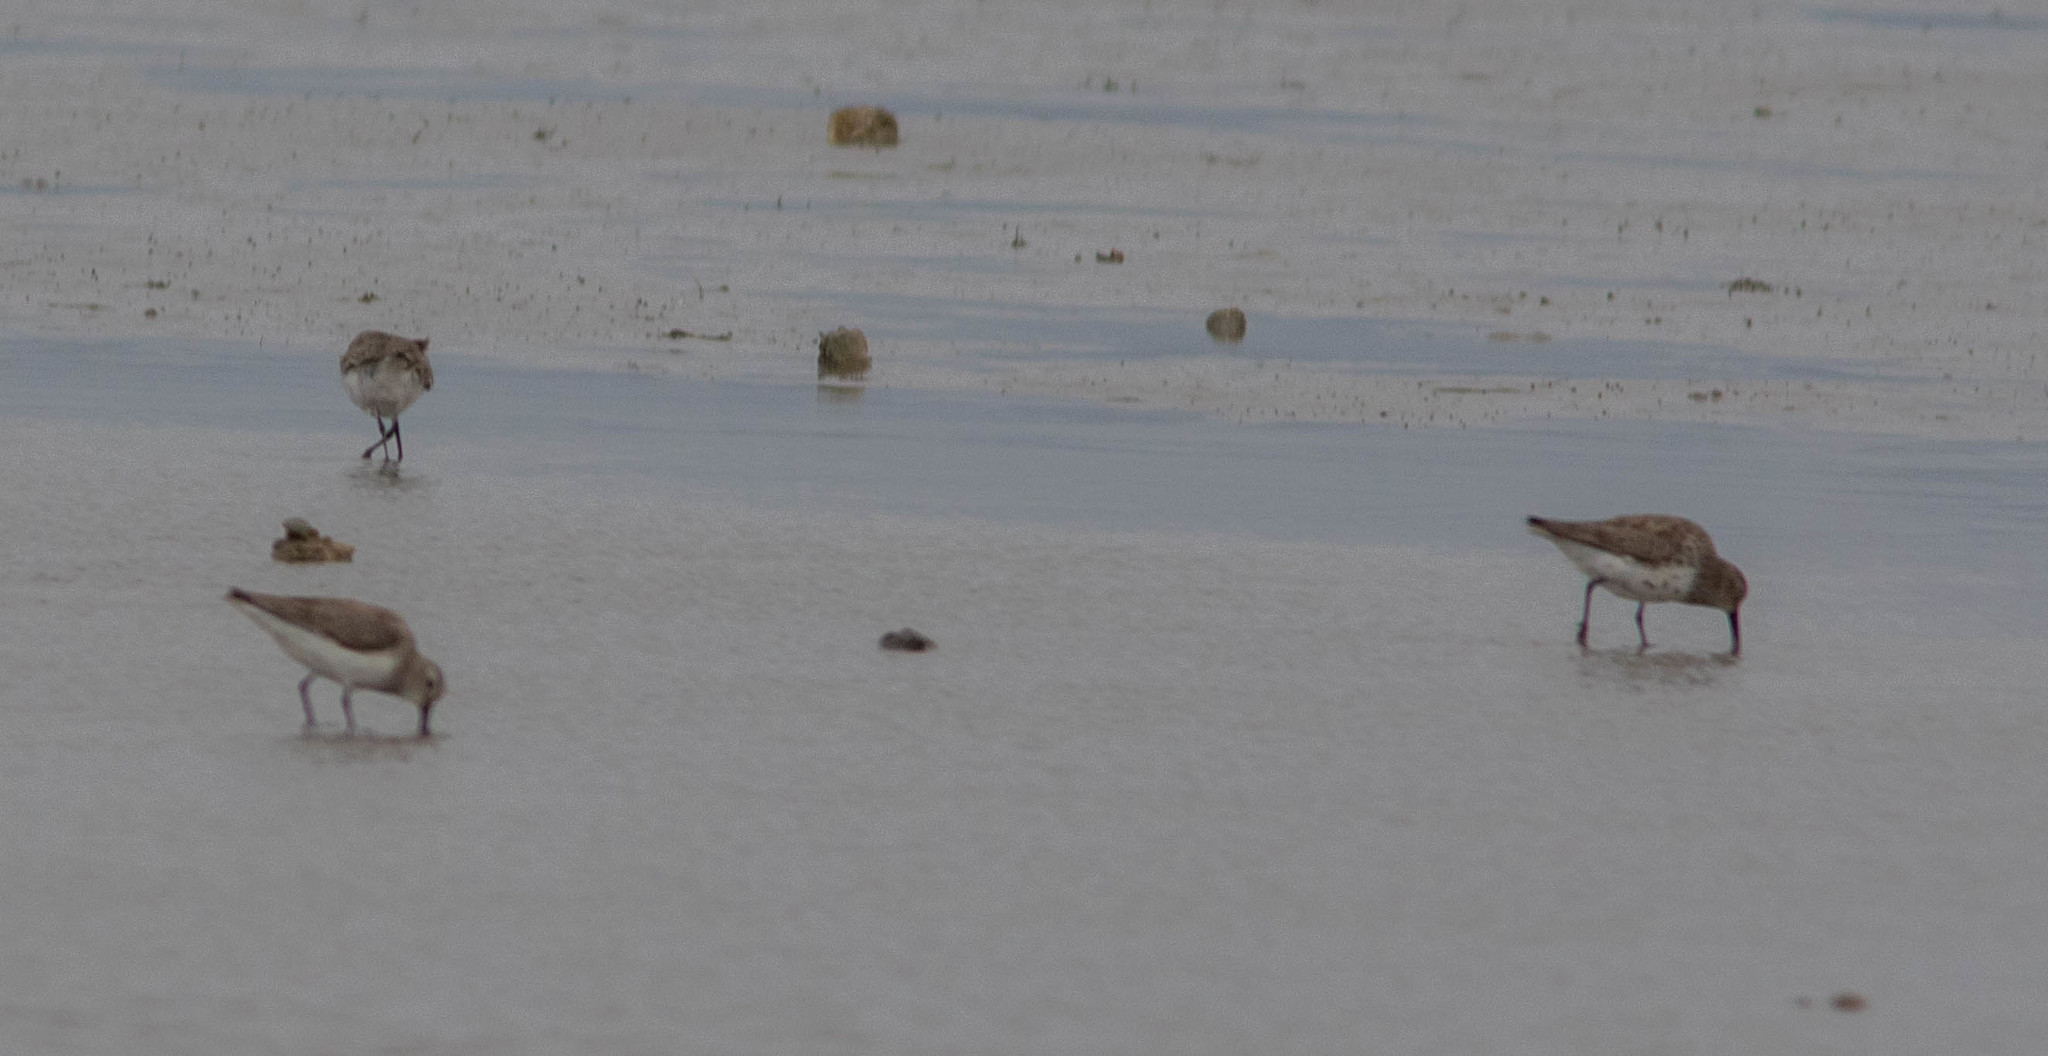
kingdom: Animalia
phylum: Chordata
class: Aves
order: Charadriiformes
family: Scolopacidae
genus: Calidris
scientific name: Calidris alpina
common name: Dunlin
